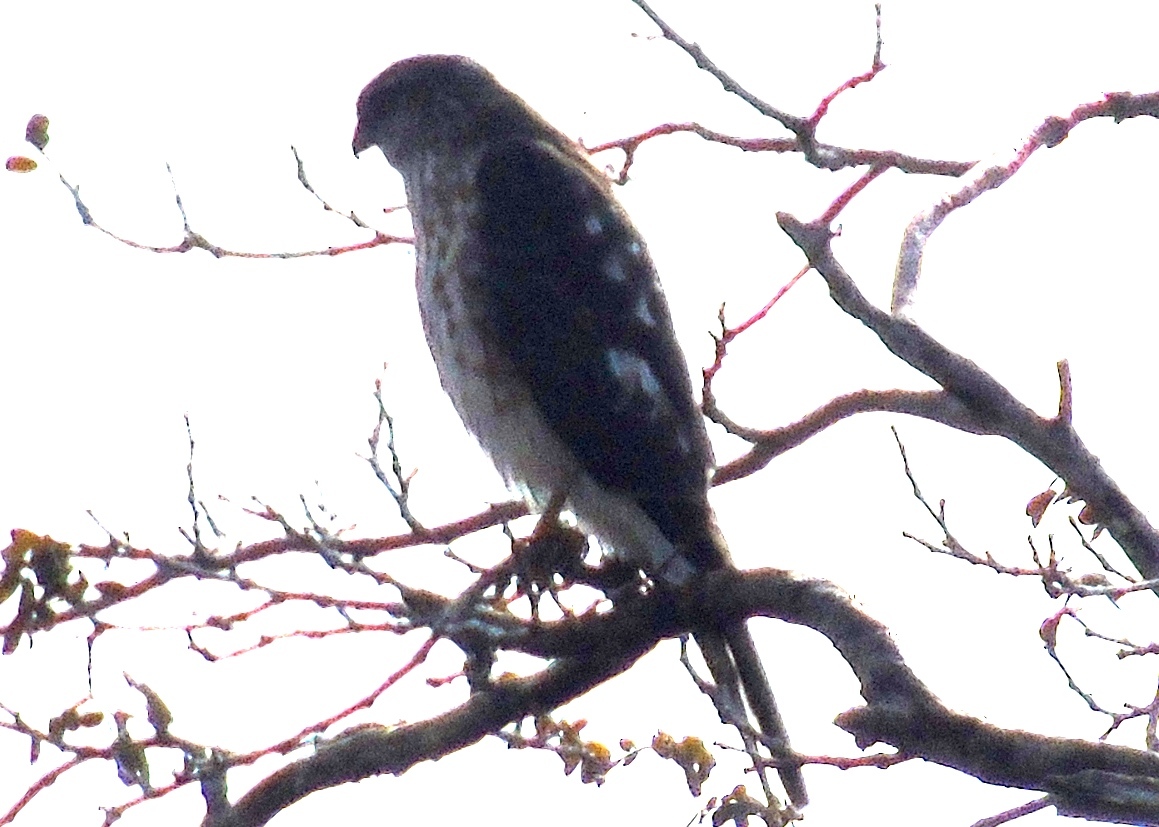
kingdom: Animalia
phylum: Chordata
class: Aves
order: Accipitriformes
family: Accipitridae
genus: Accipiter
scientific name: Accipiter striatus
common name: Sharp-shinned hawk
